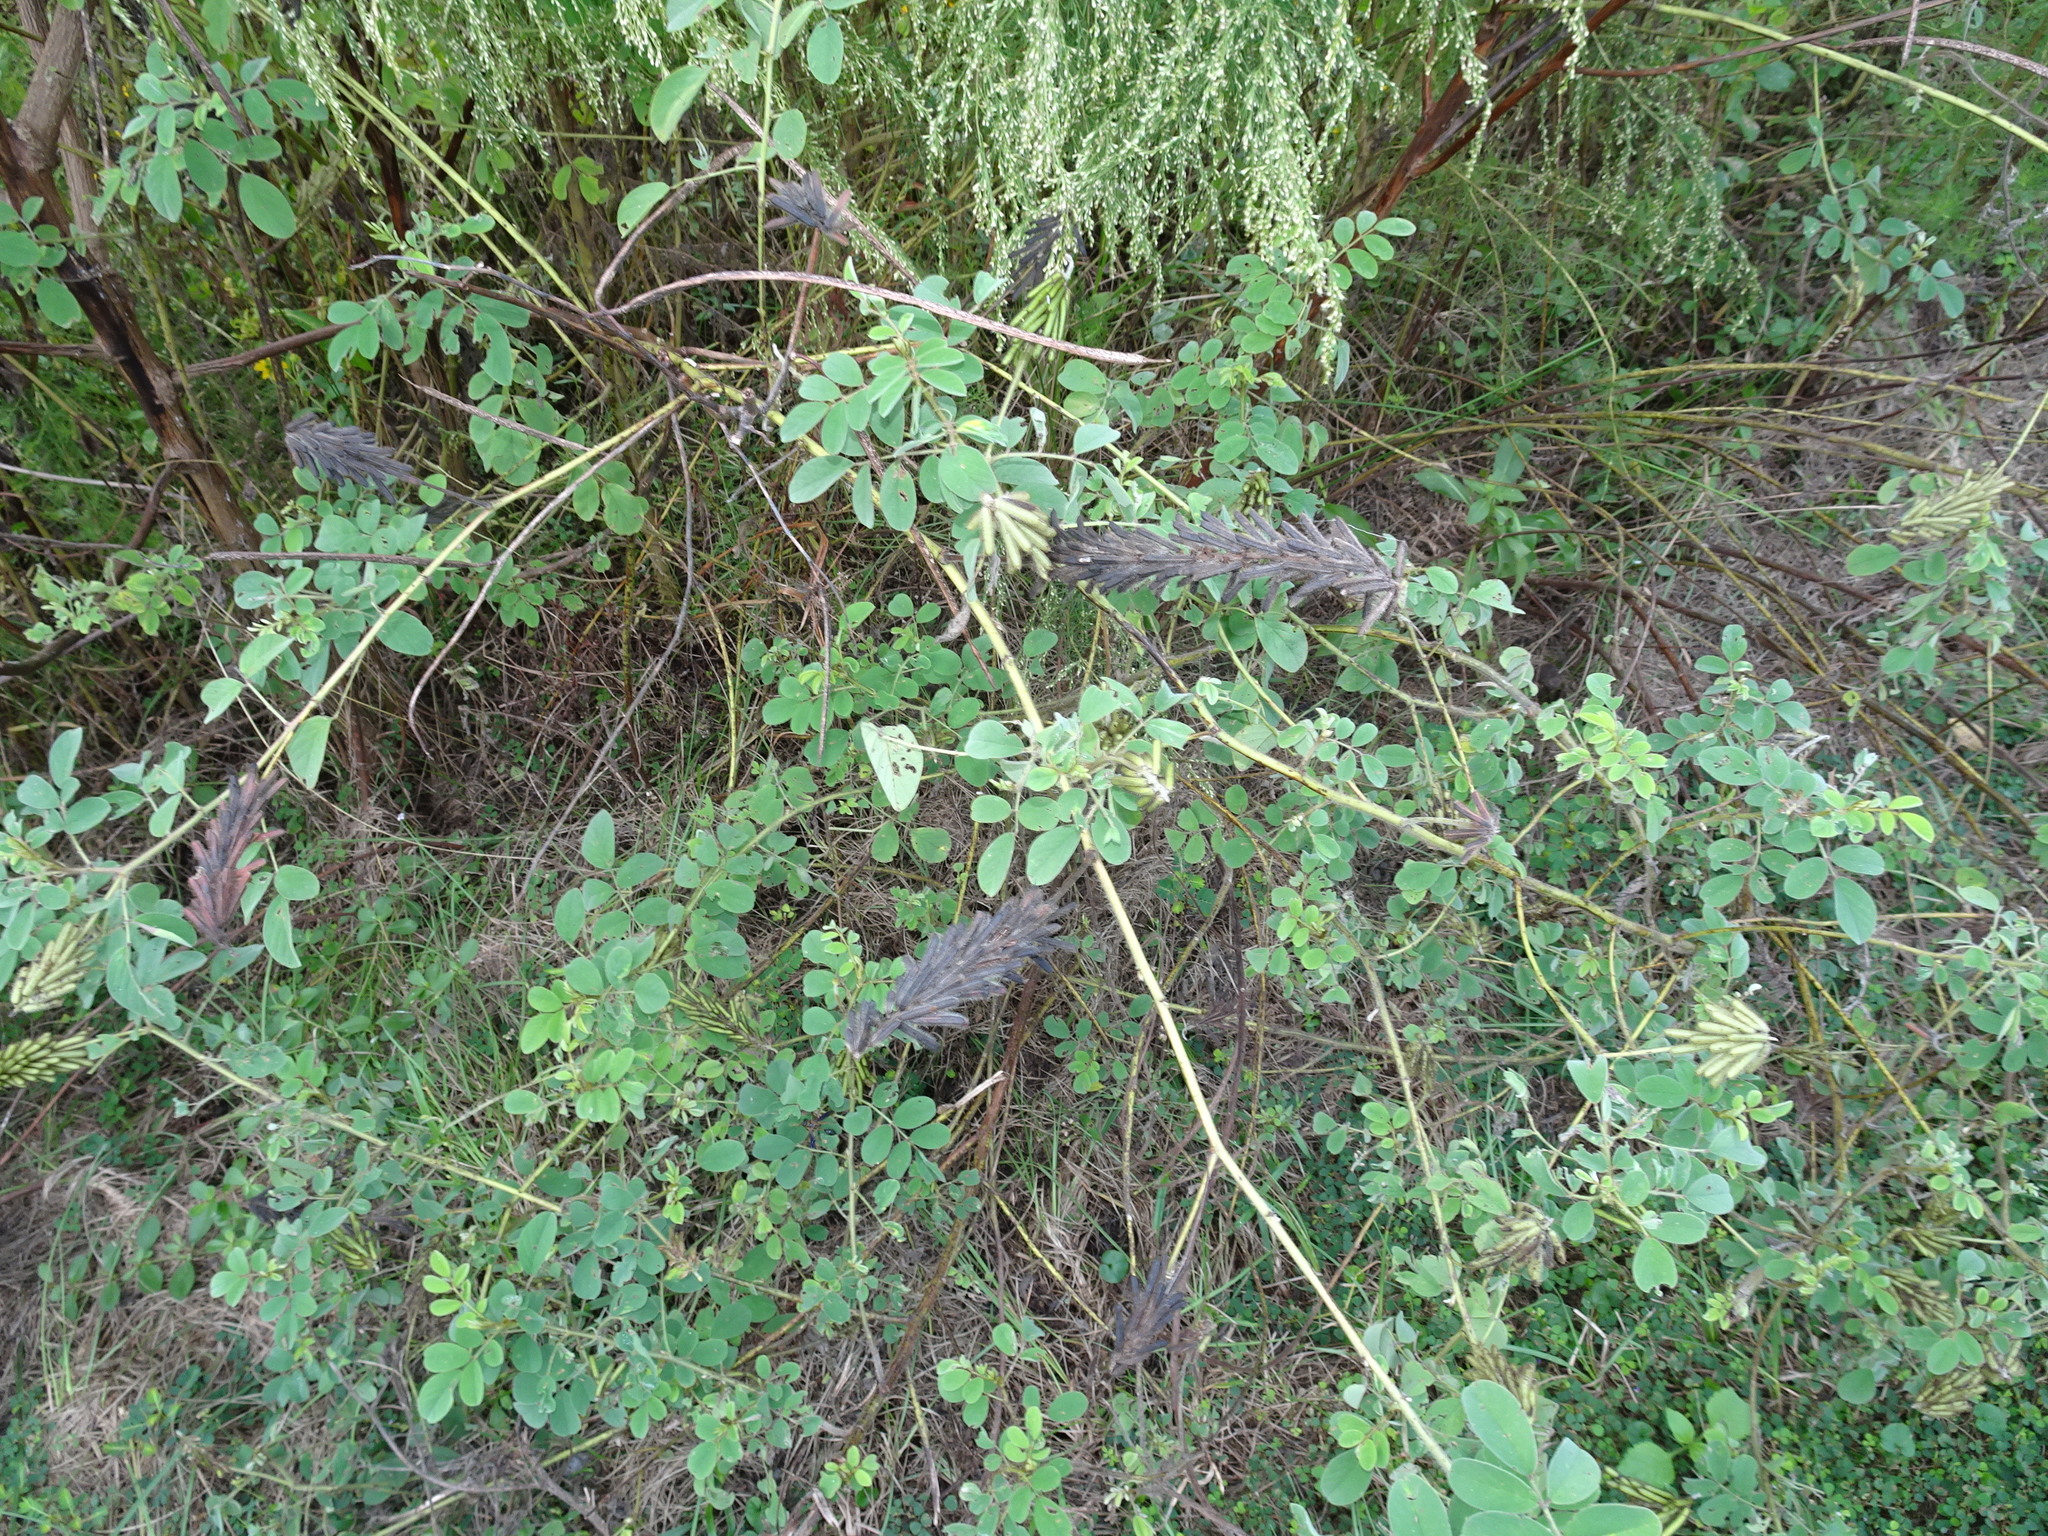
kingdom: Plantae
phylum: Tracheophyta
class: Magnoliopsida
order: Fabales
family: Fabaceae
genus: Indigofera
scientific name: Indigofera hirsuta
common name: Hairy indigo
